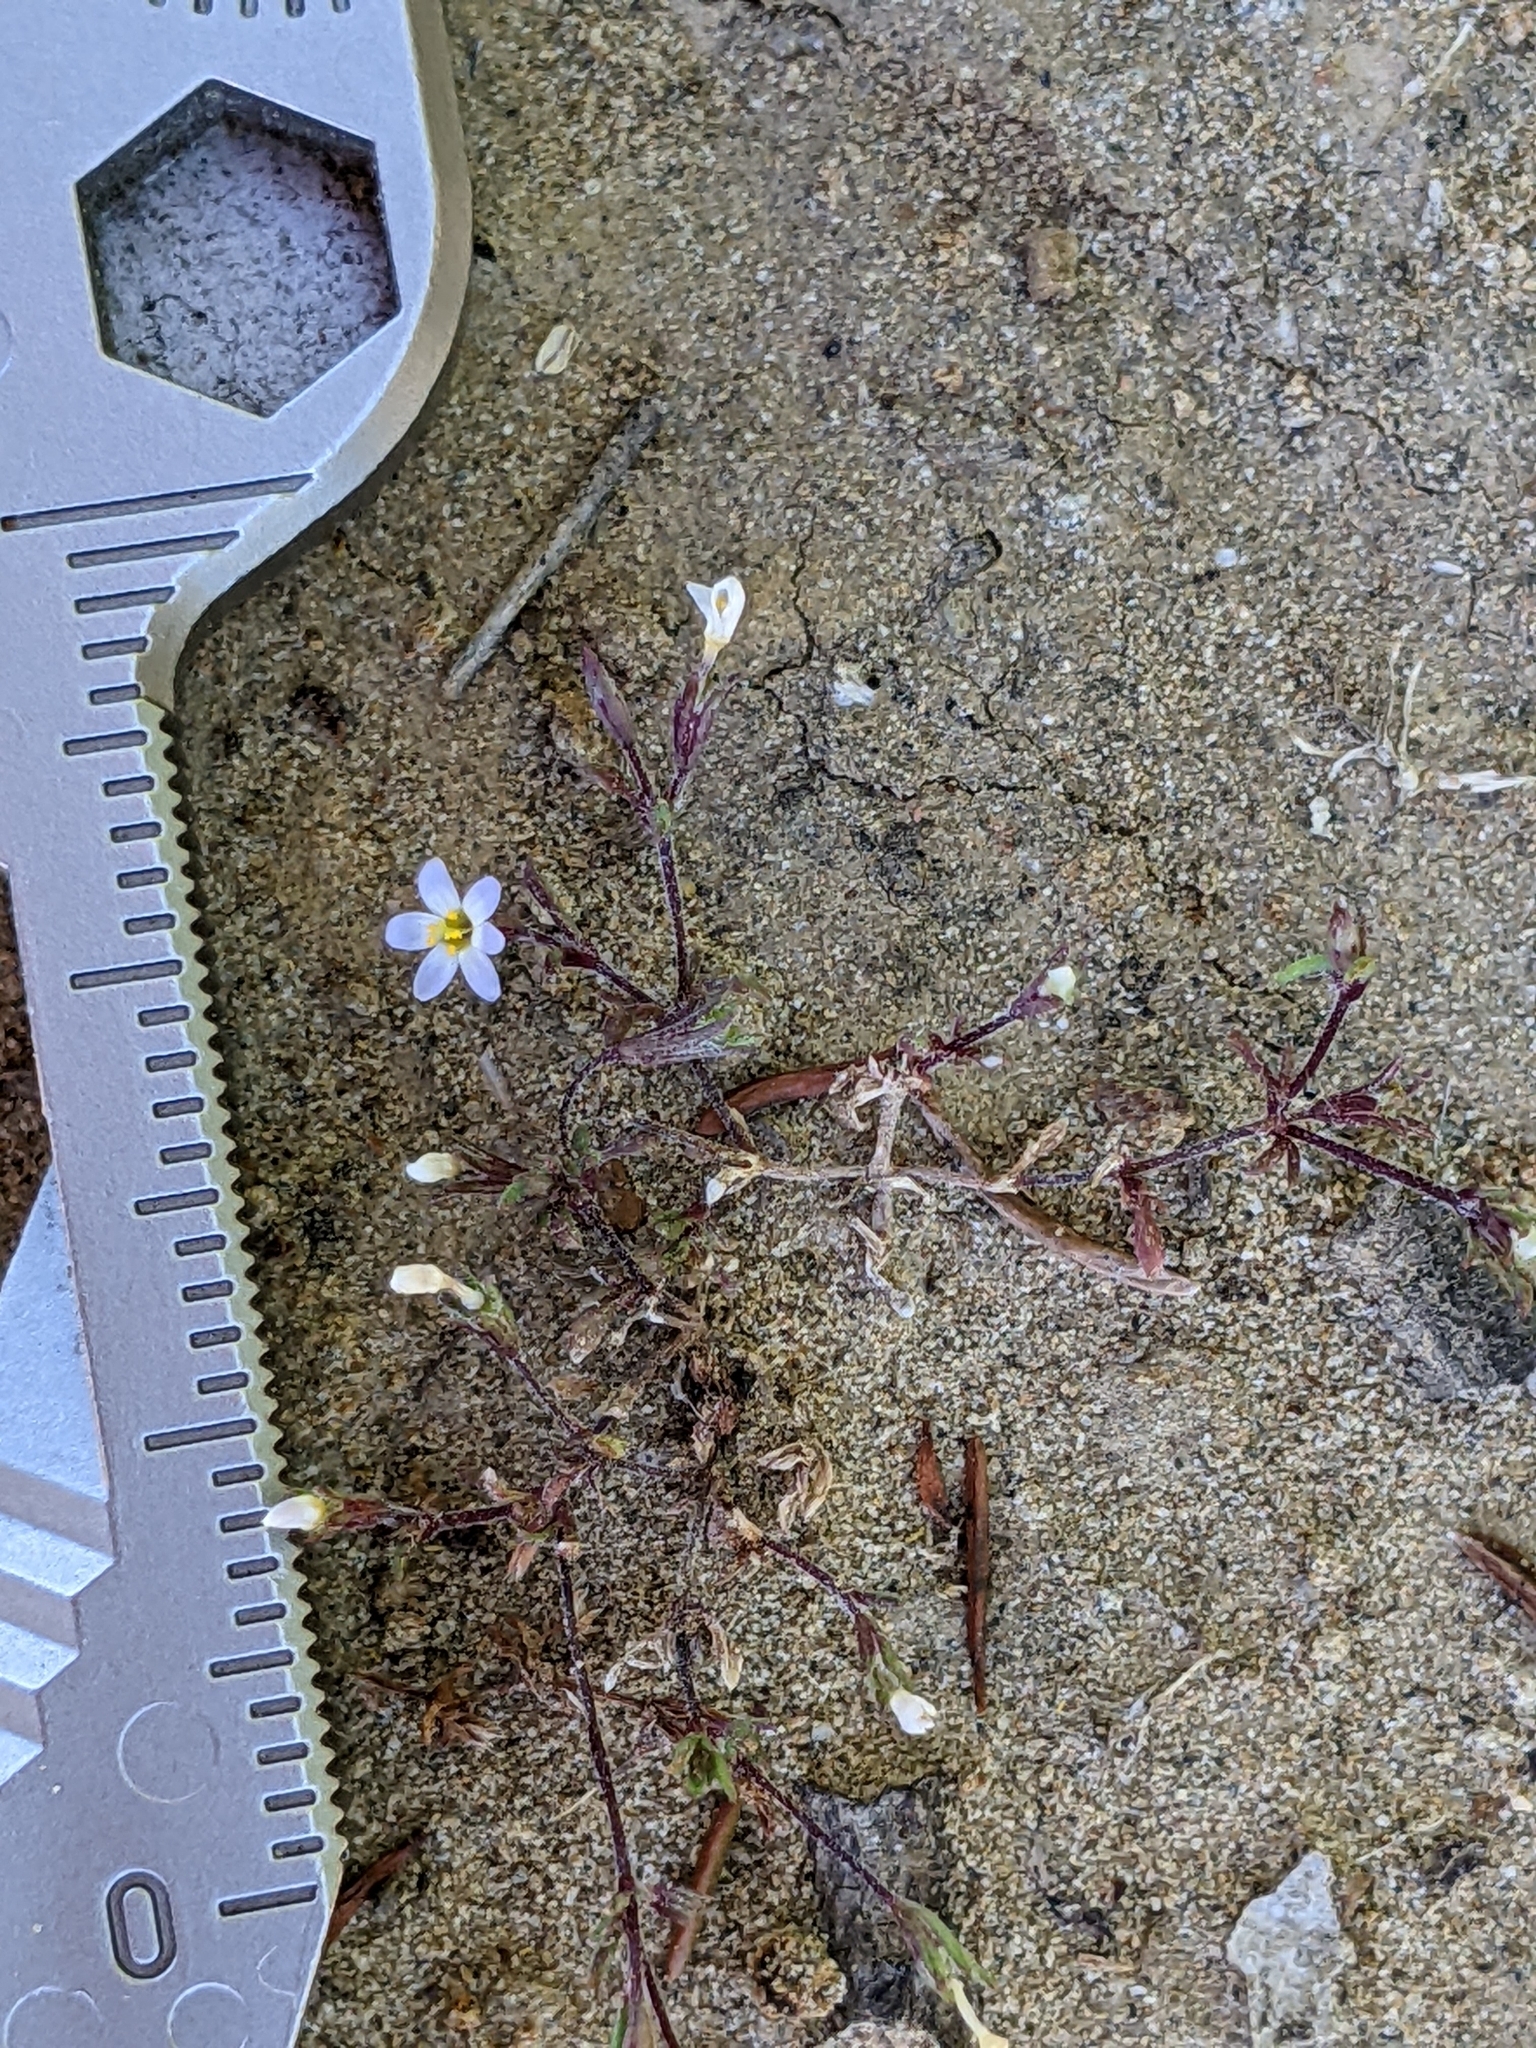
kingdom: Plantae
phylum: Tracheophyta
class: Magnoliopsida
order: Ericales
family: Polemoniaceae
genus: Leptosiphon
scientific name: Leptosiphon pygmaeus
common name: Pygmy linanthus
